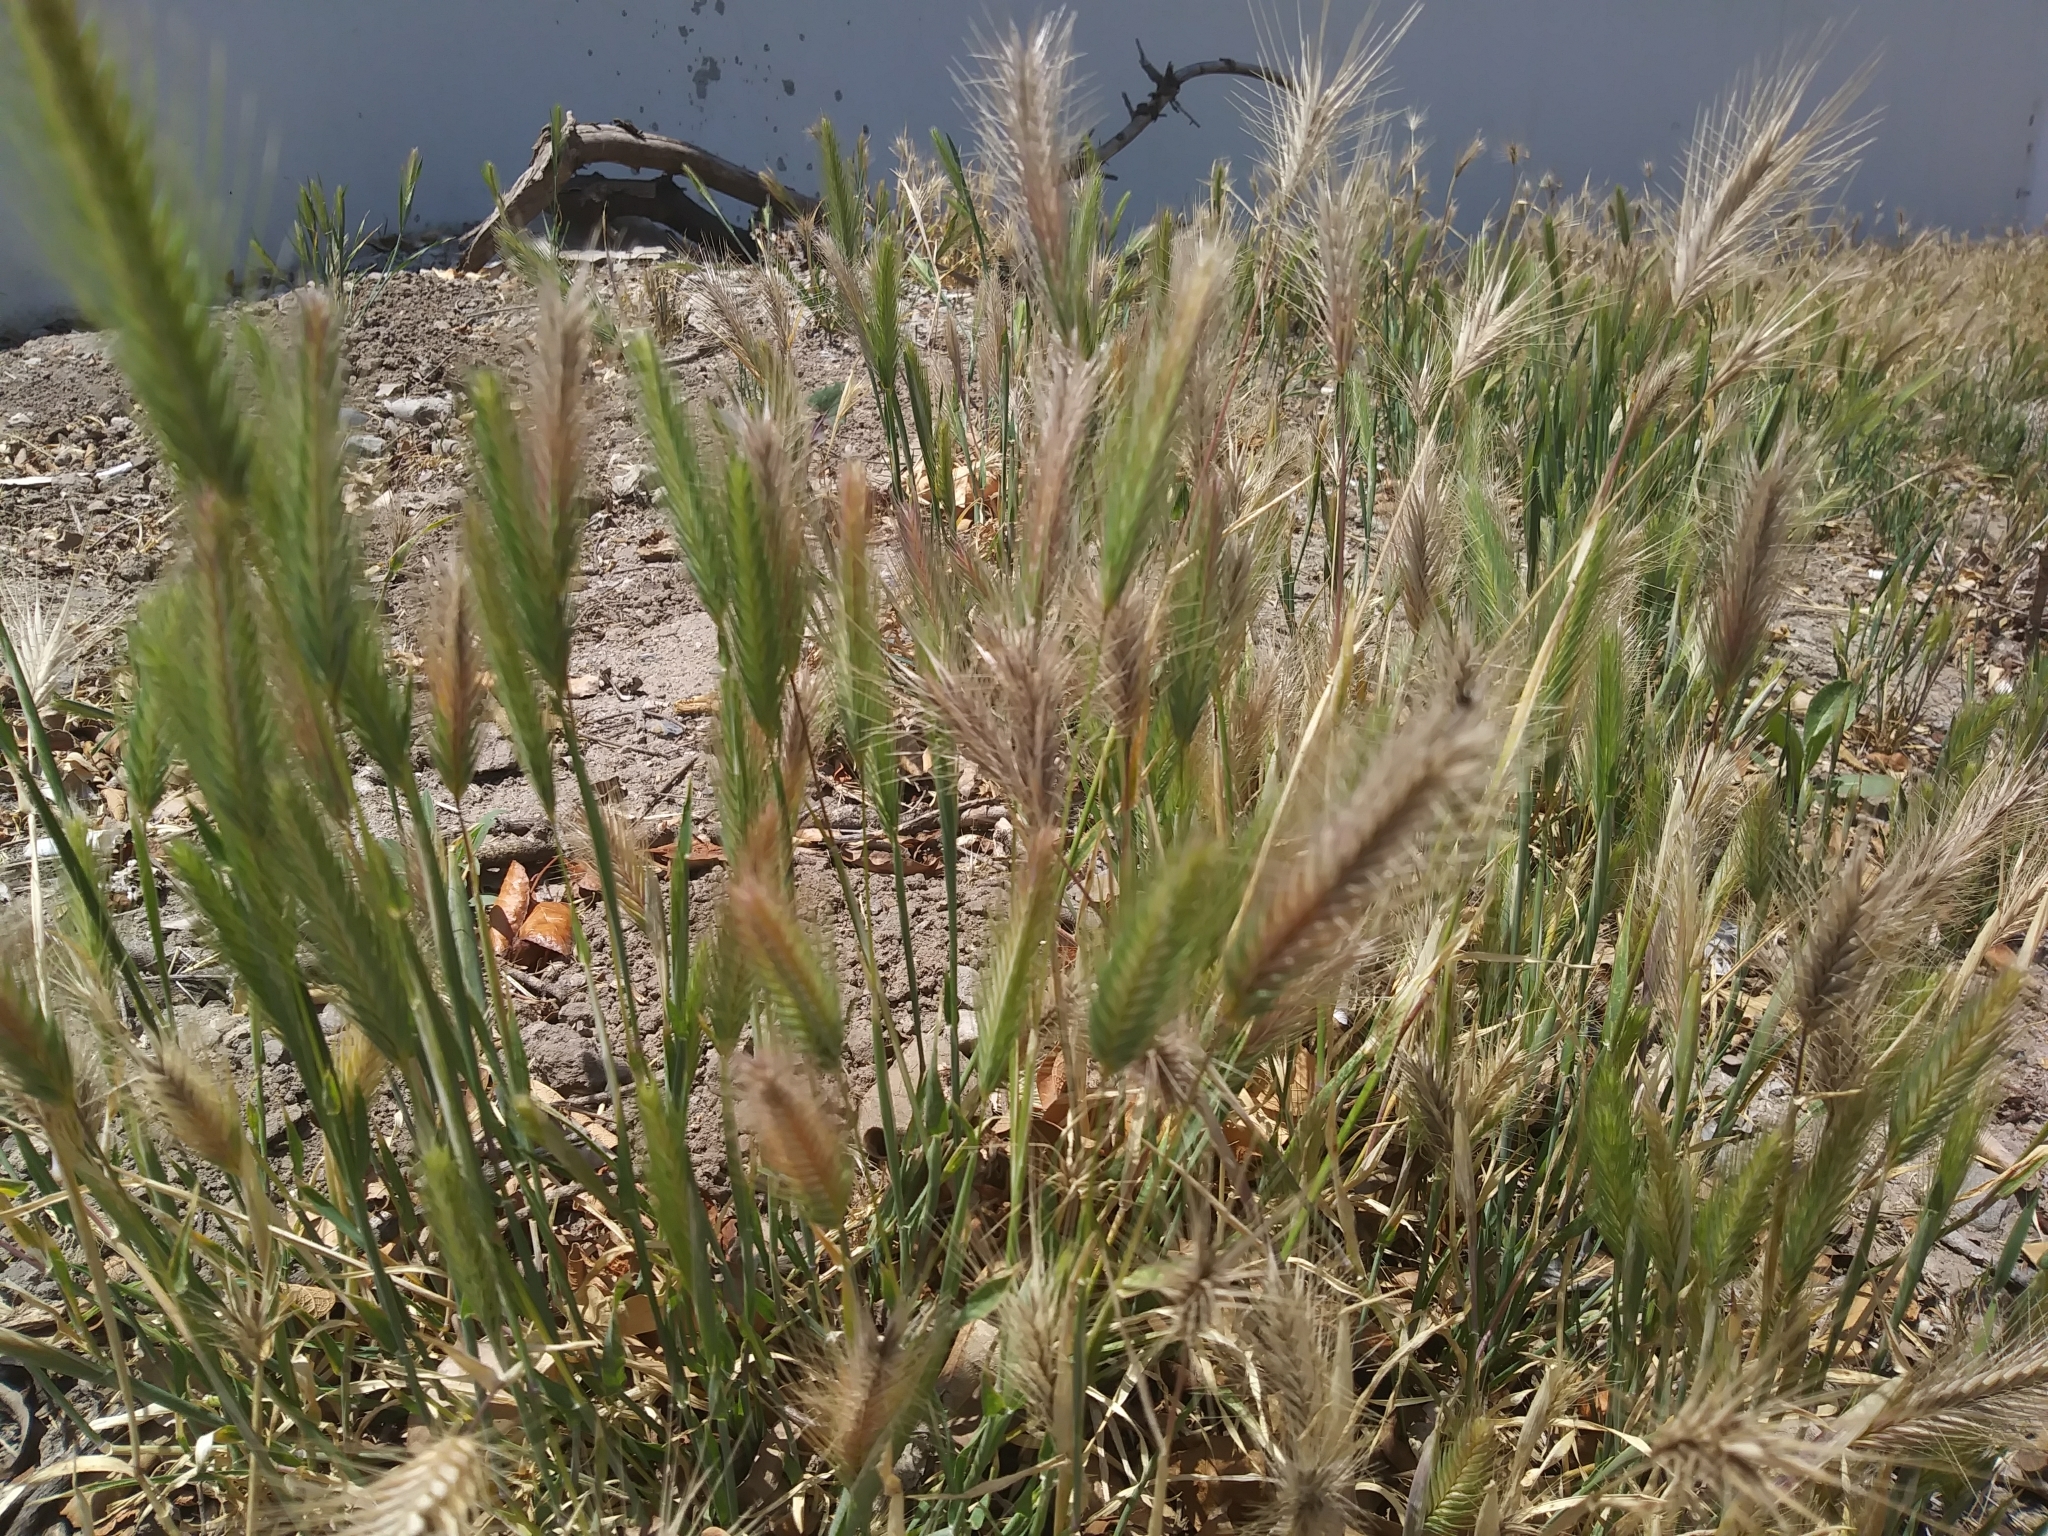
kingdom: Plantae
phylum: Tracheophyta
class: Liliopsida
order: Poales
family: Poaceae
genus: Hordeum
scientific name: Hordeum murinum
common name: Wall barley
